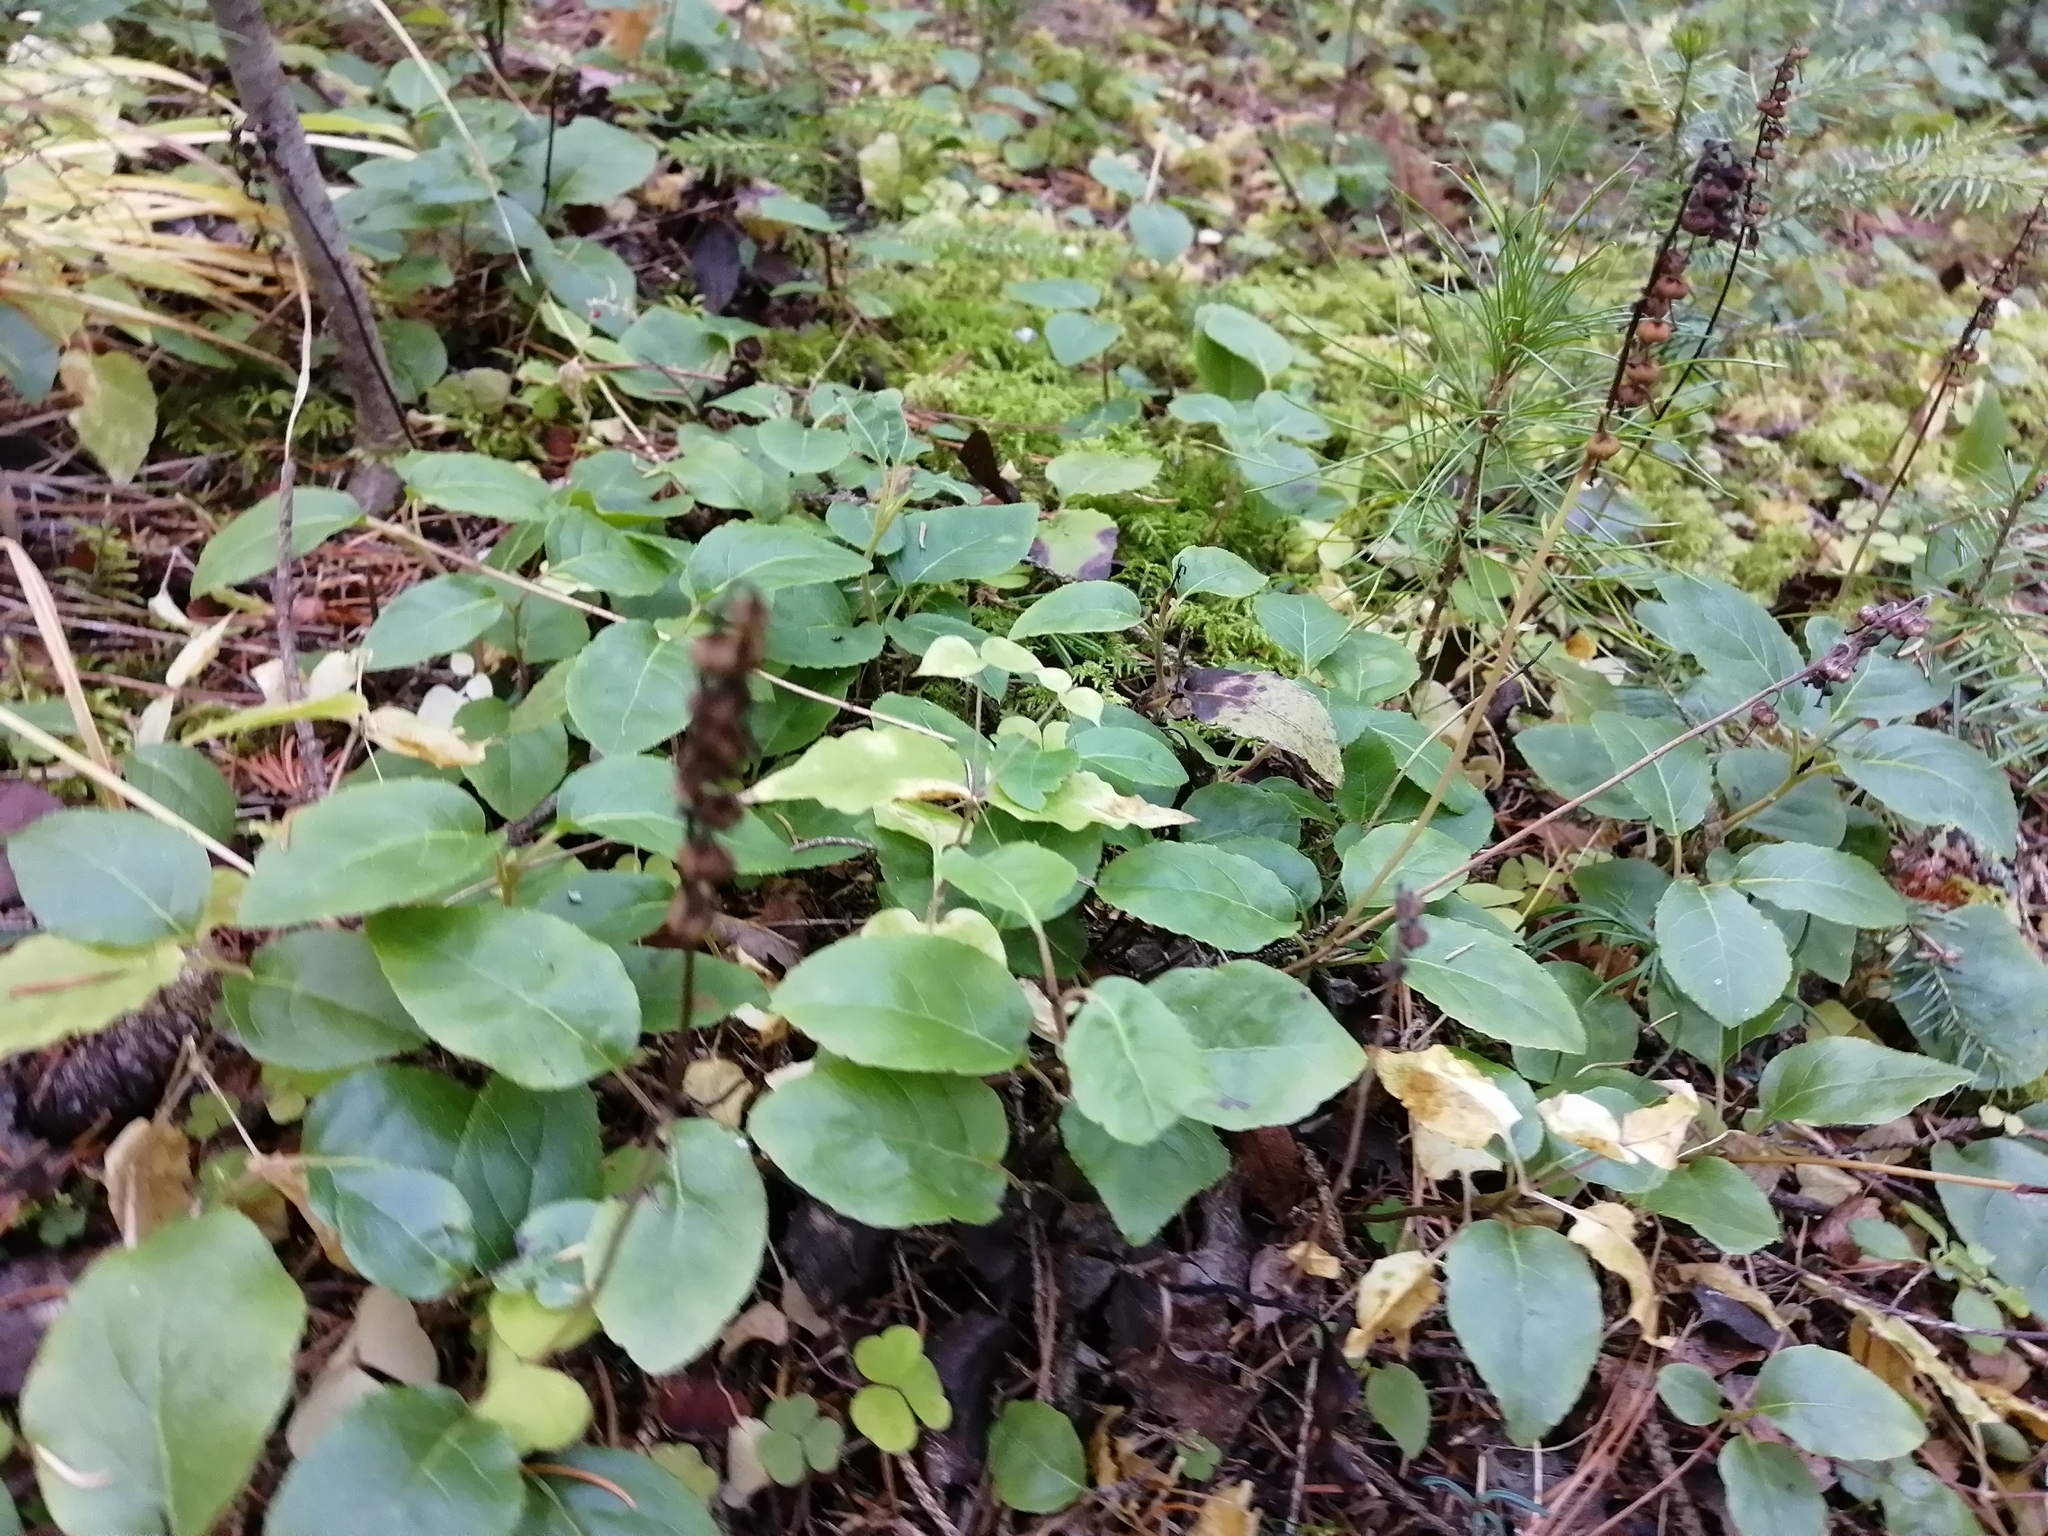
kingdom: Plantae
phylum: Tracheophyta
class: Magnoliopsida
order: Ericales
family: Ericaceae
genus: Orthilia
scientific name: Orthilia secunda
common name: One-sided orthilia
